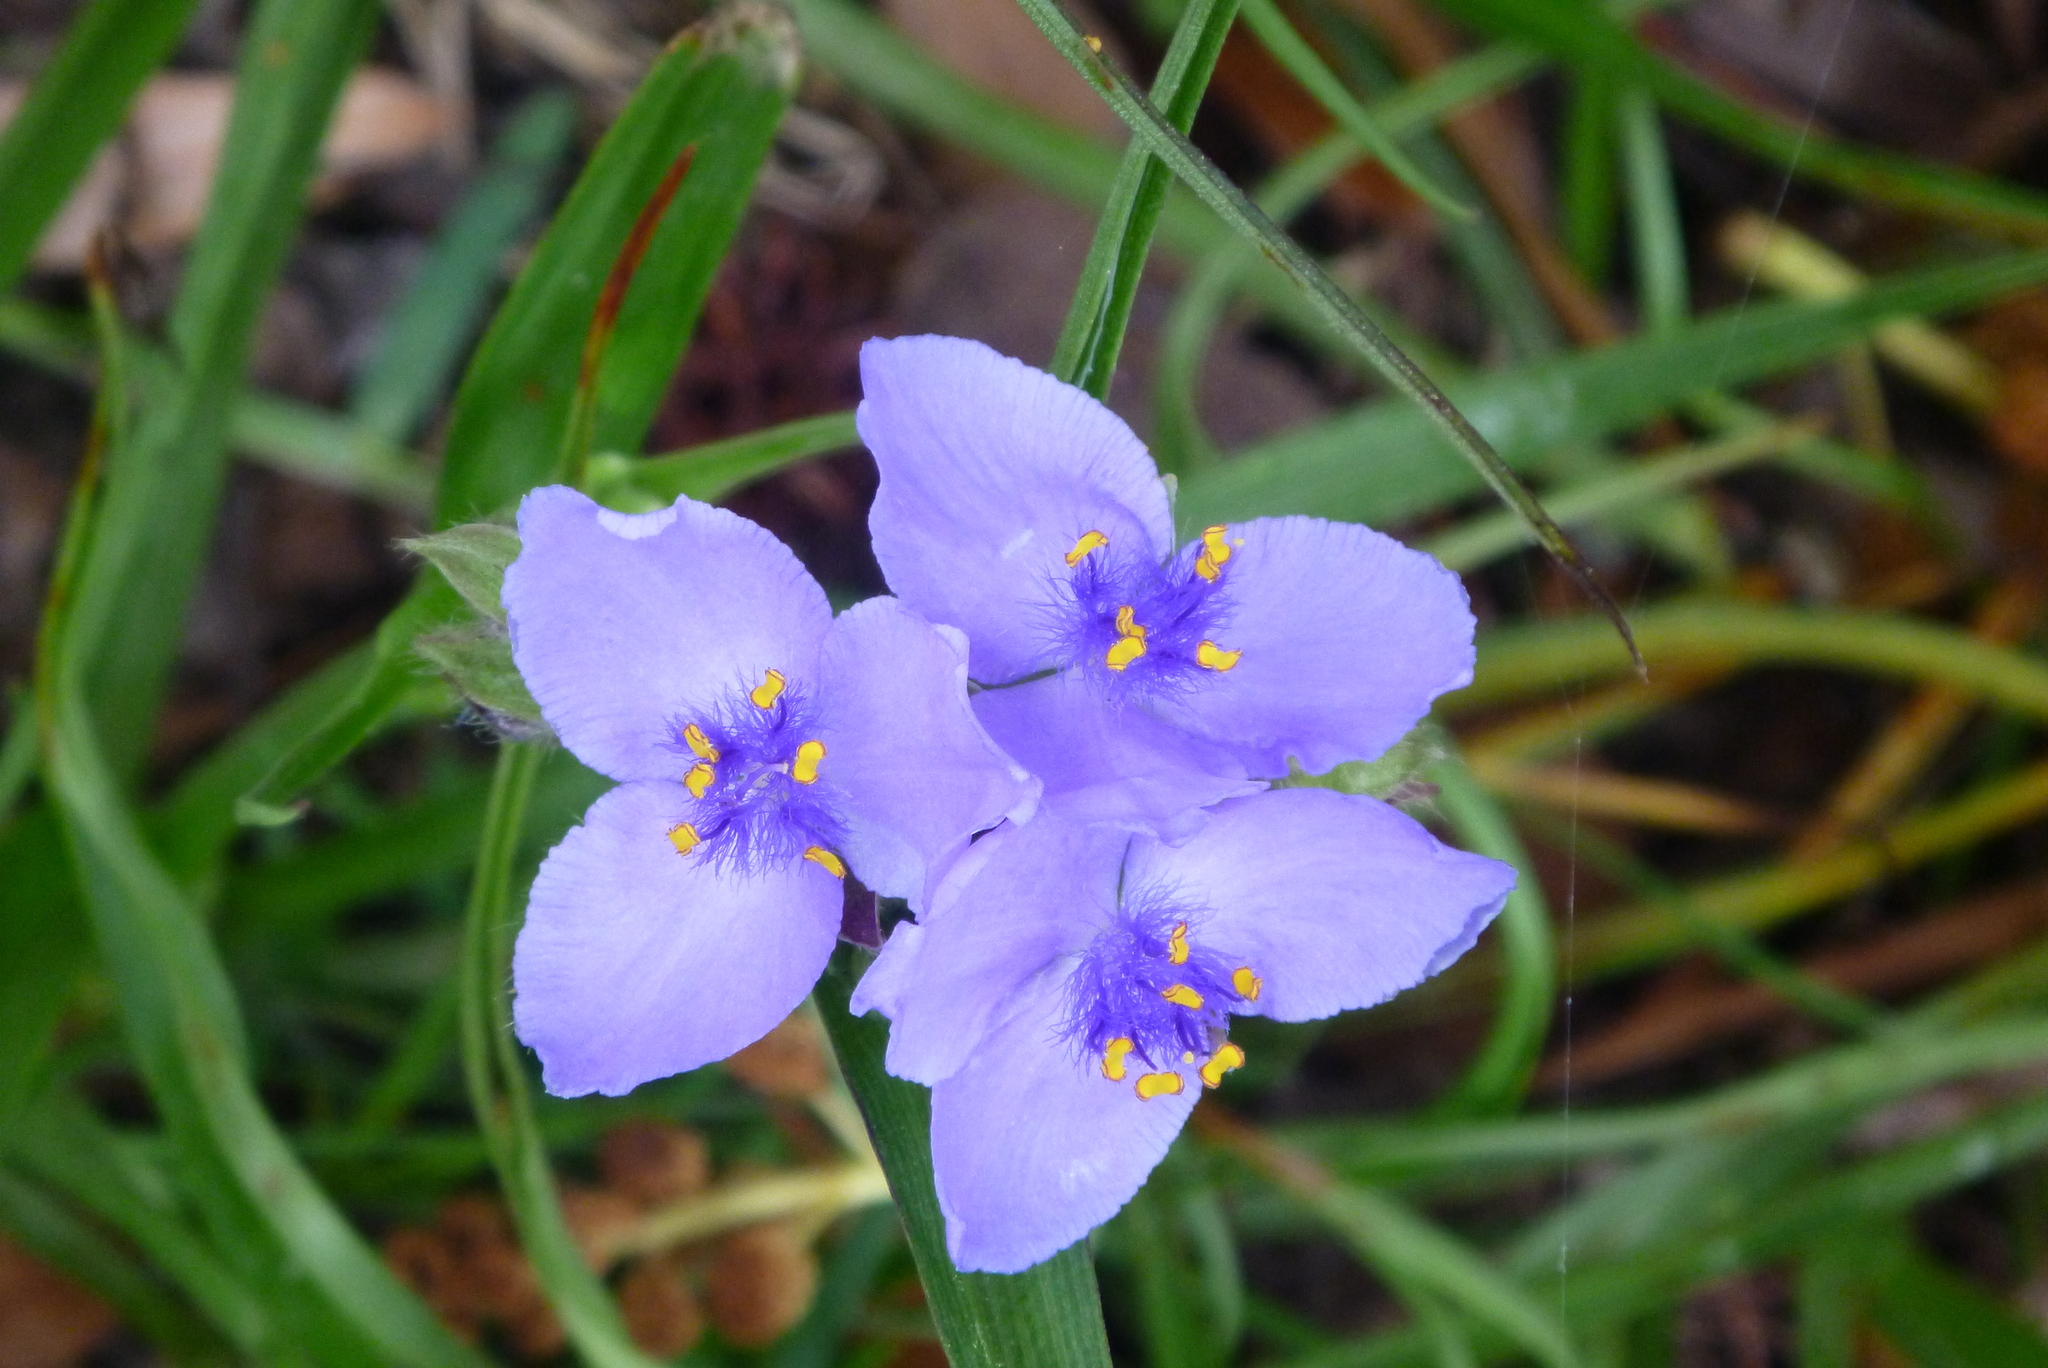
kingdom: Plantae
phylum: Tracheophyta
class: Liliopsida
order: Commelinales
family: Commelinaceae
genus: Tradescantia
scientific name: Tradescantia ohiensis
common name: Ohio spiderwort
